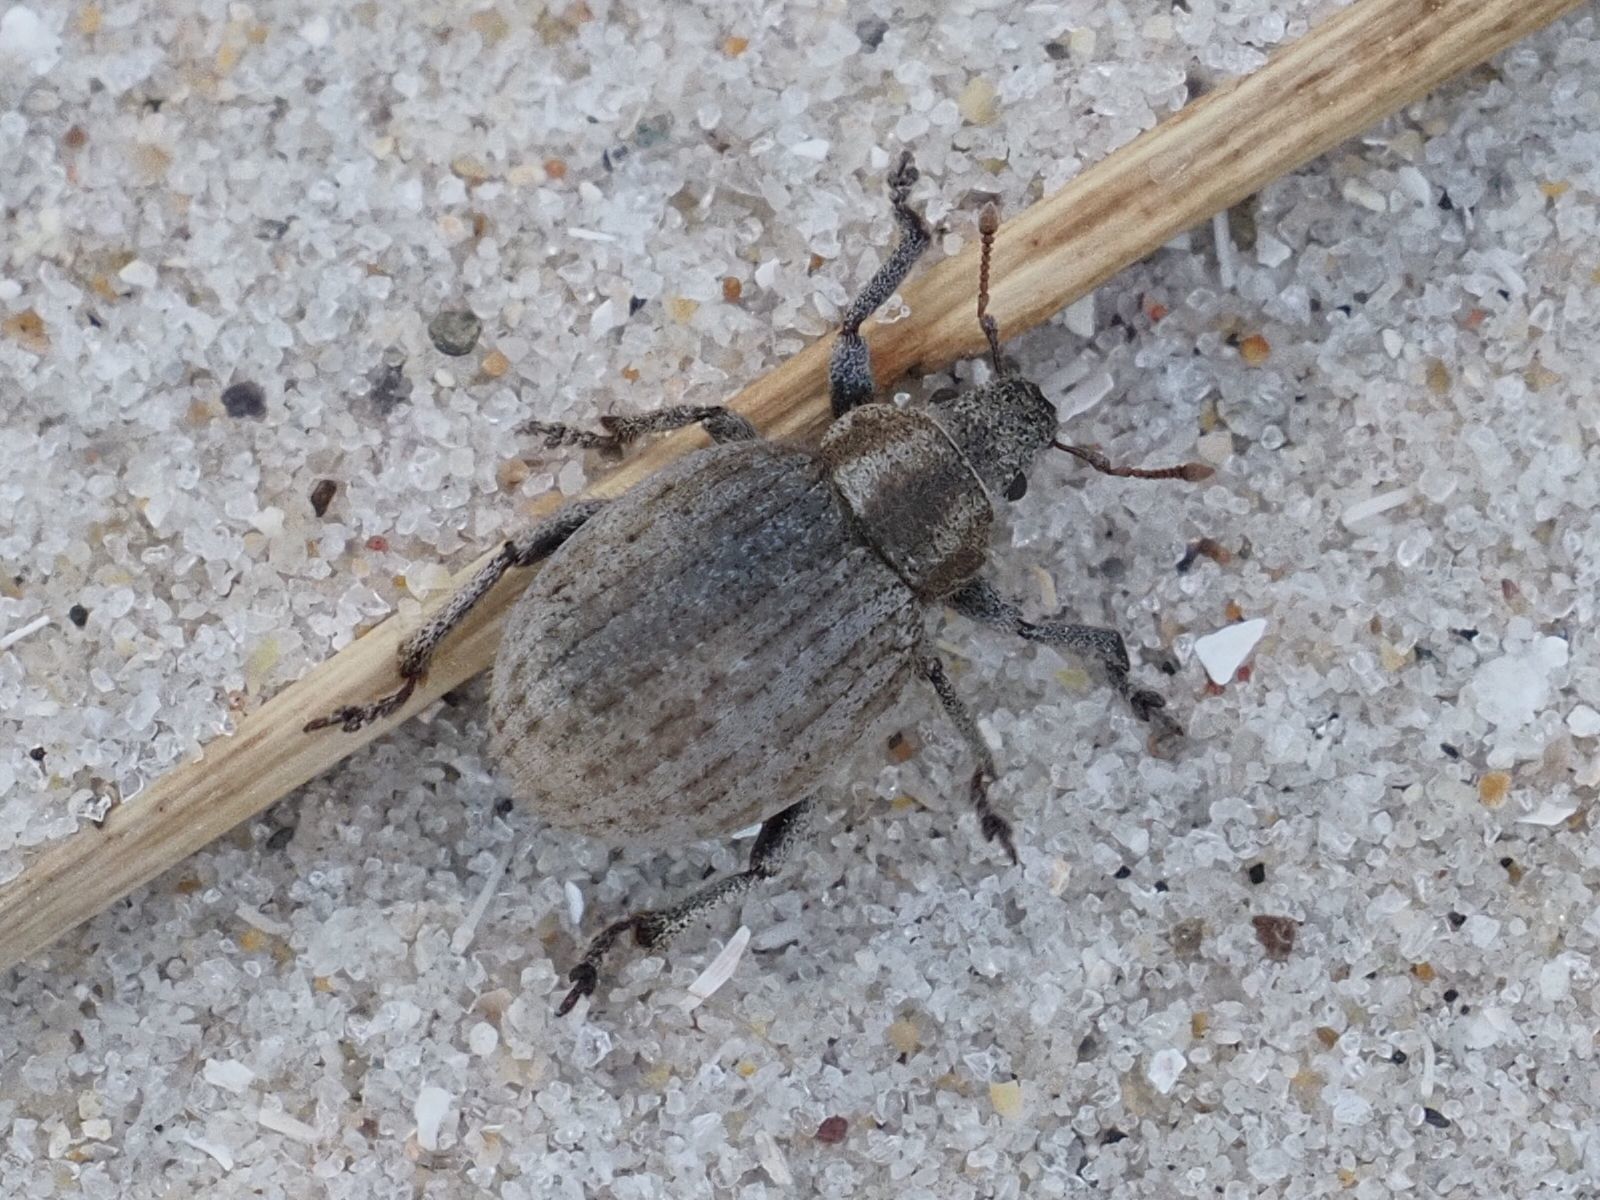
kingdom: Animalia
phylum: Arthropoda
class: Insecta
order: Coleoptera
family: Curculionidae
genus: Philopedon
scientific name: Philopedon plagiatum
